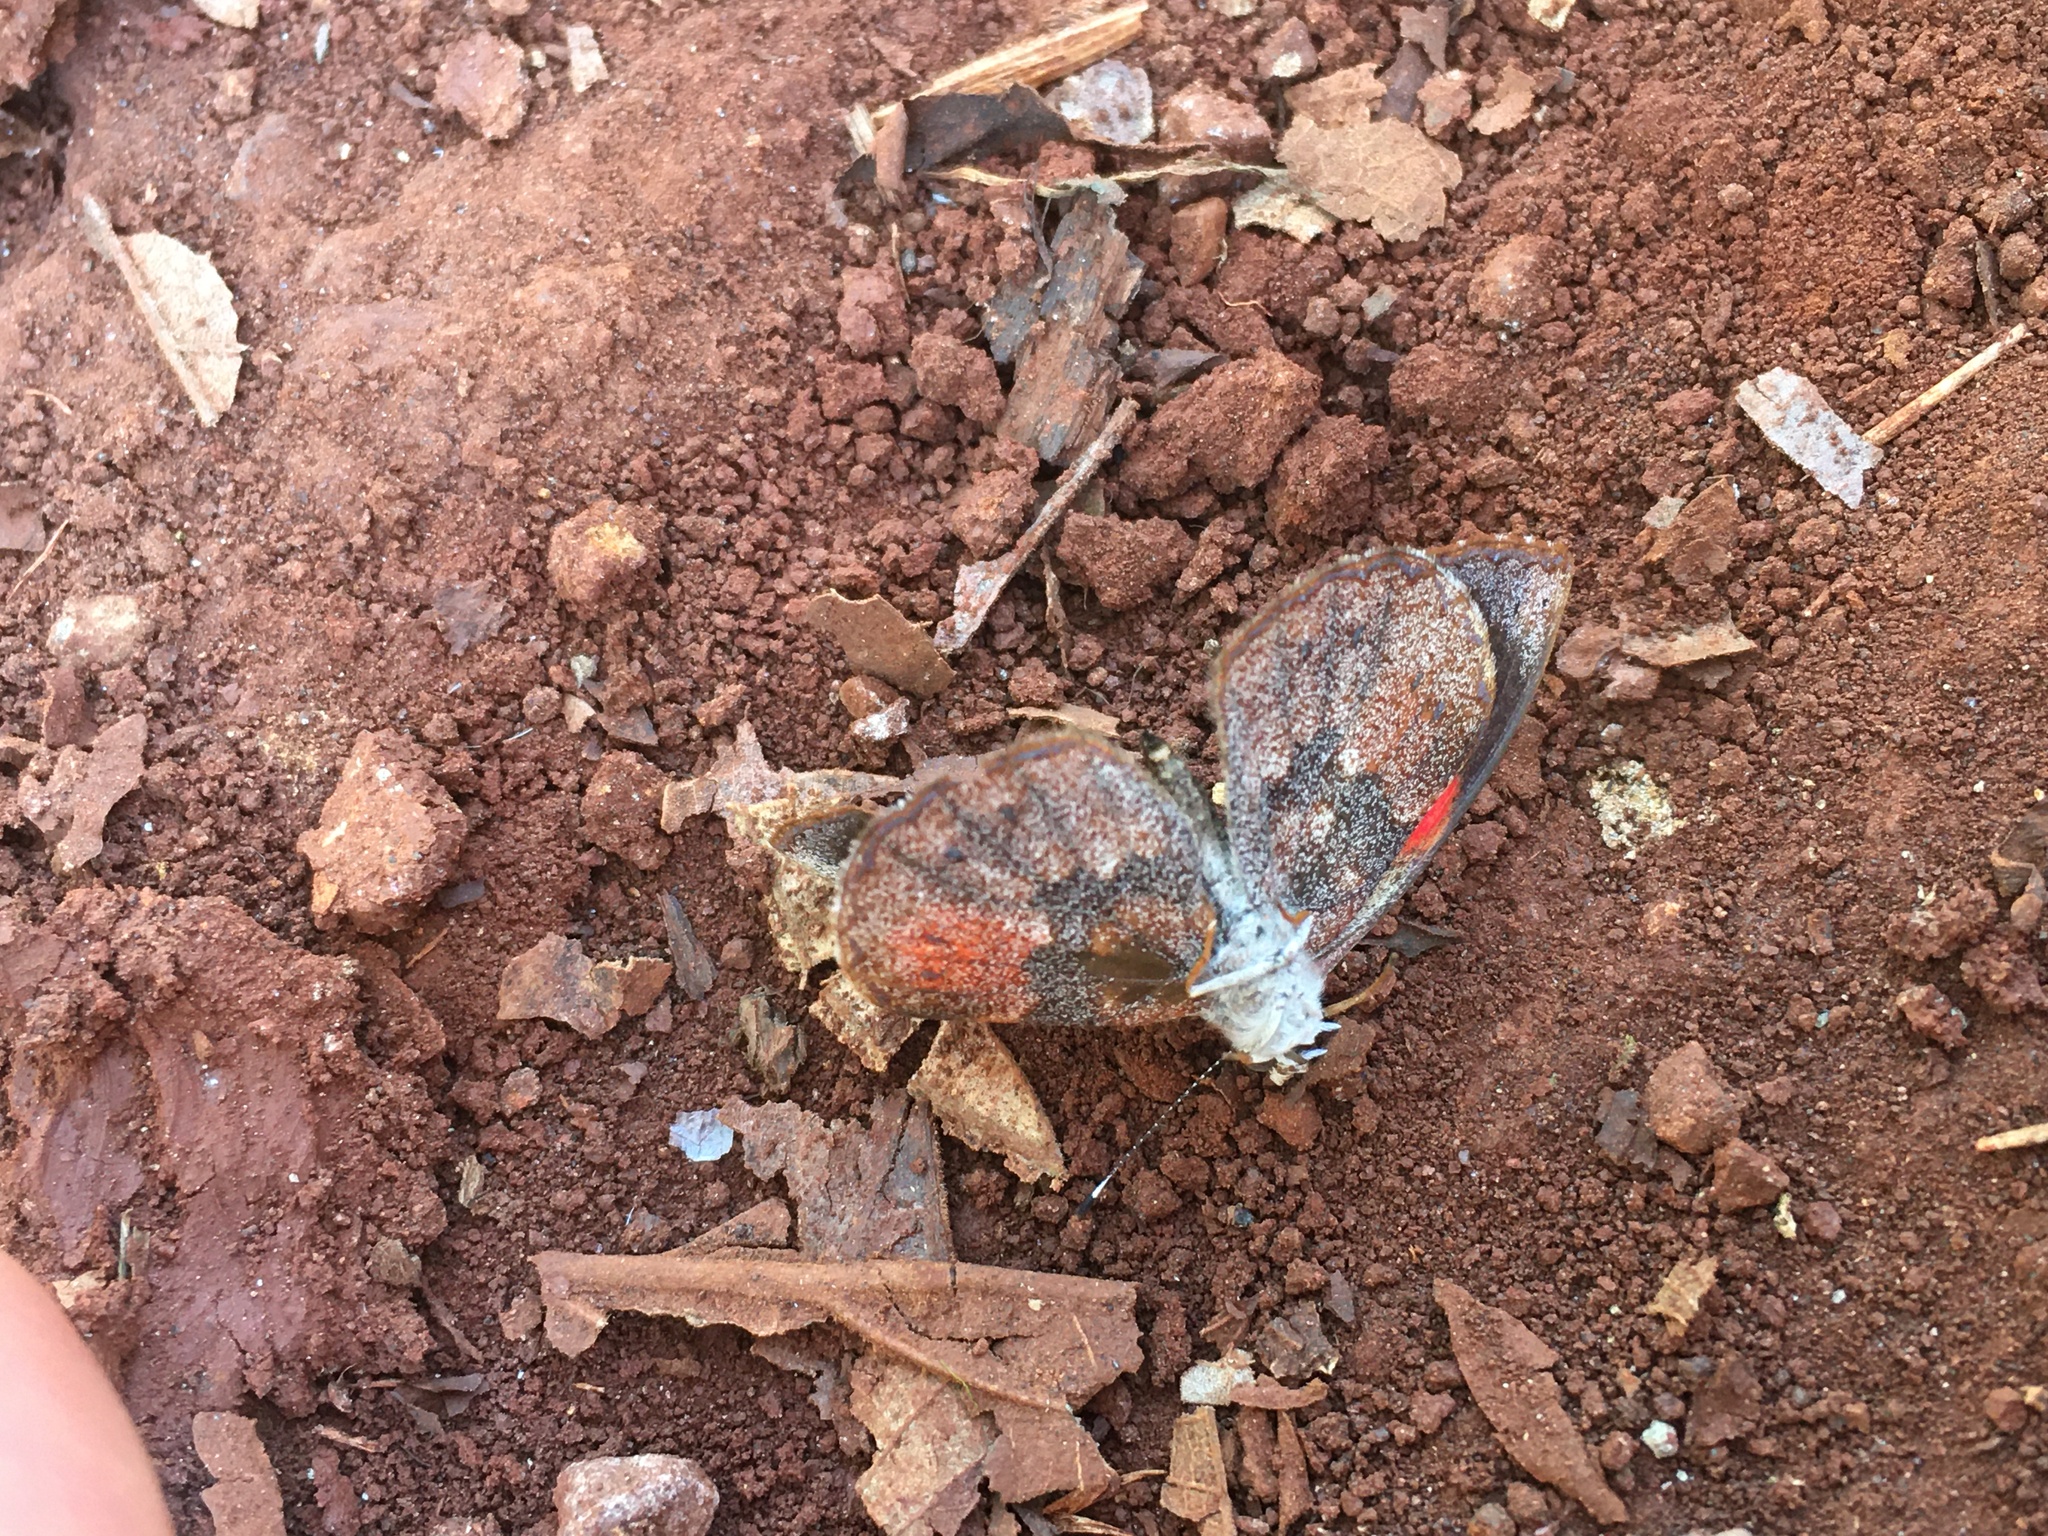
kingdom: Animalia
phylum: Arthropoda
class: Insecta
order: Lepidoptera
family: Nymphalidae
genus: Haematera
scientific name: Haematera pyrame
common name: Blind eighty-eight
